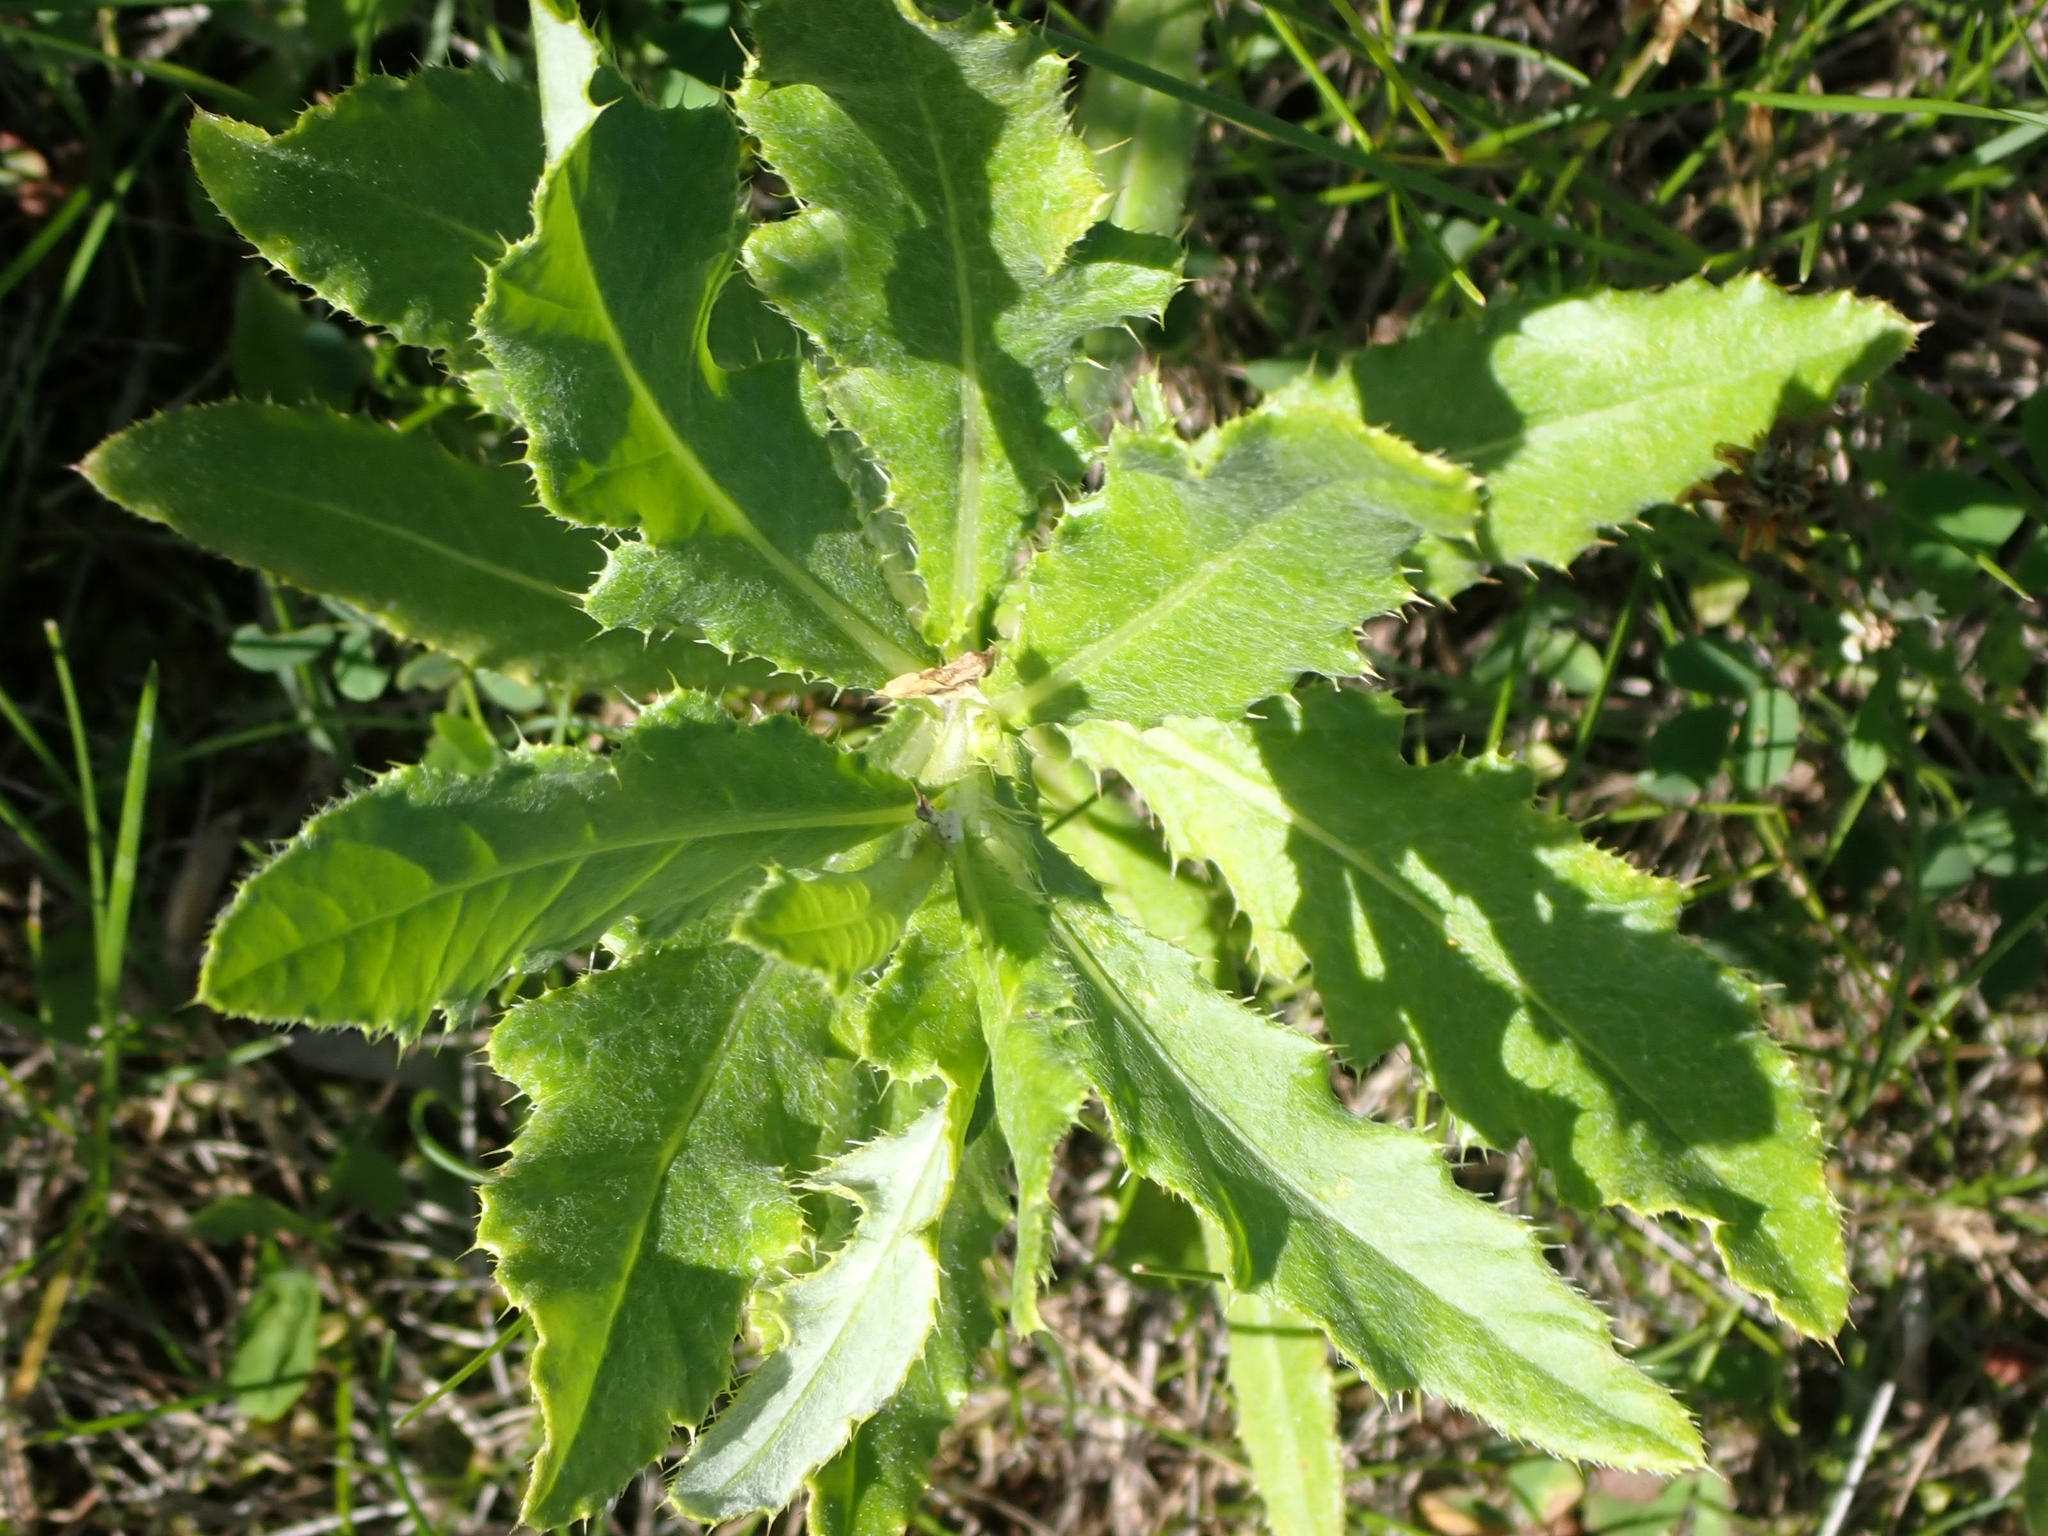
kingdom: Plantae
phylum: Tracheophyta
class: Magnoliopsida
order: Asterales
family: Asteraceae
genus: Cirsium
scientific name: Cirsium arvense
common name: Creeping thistle
